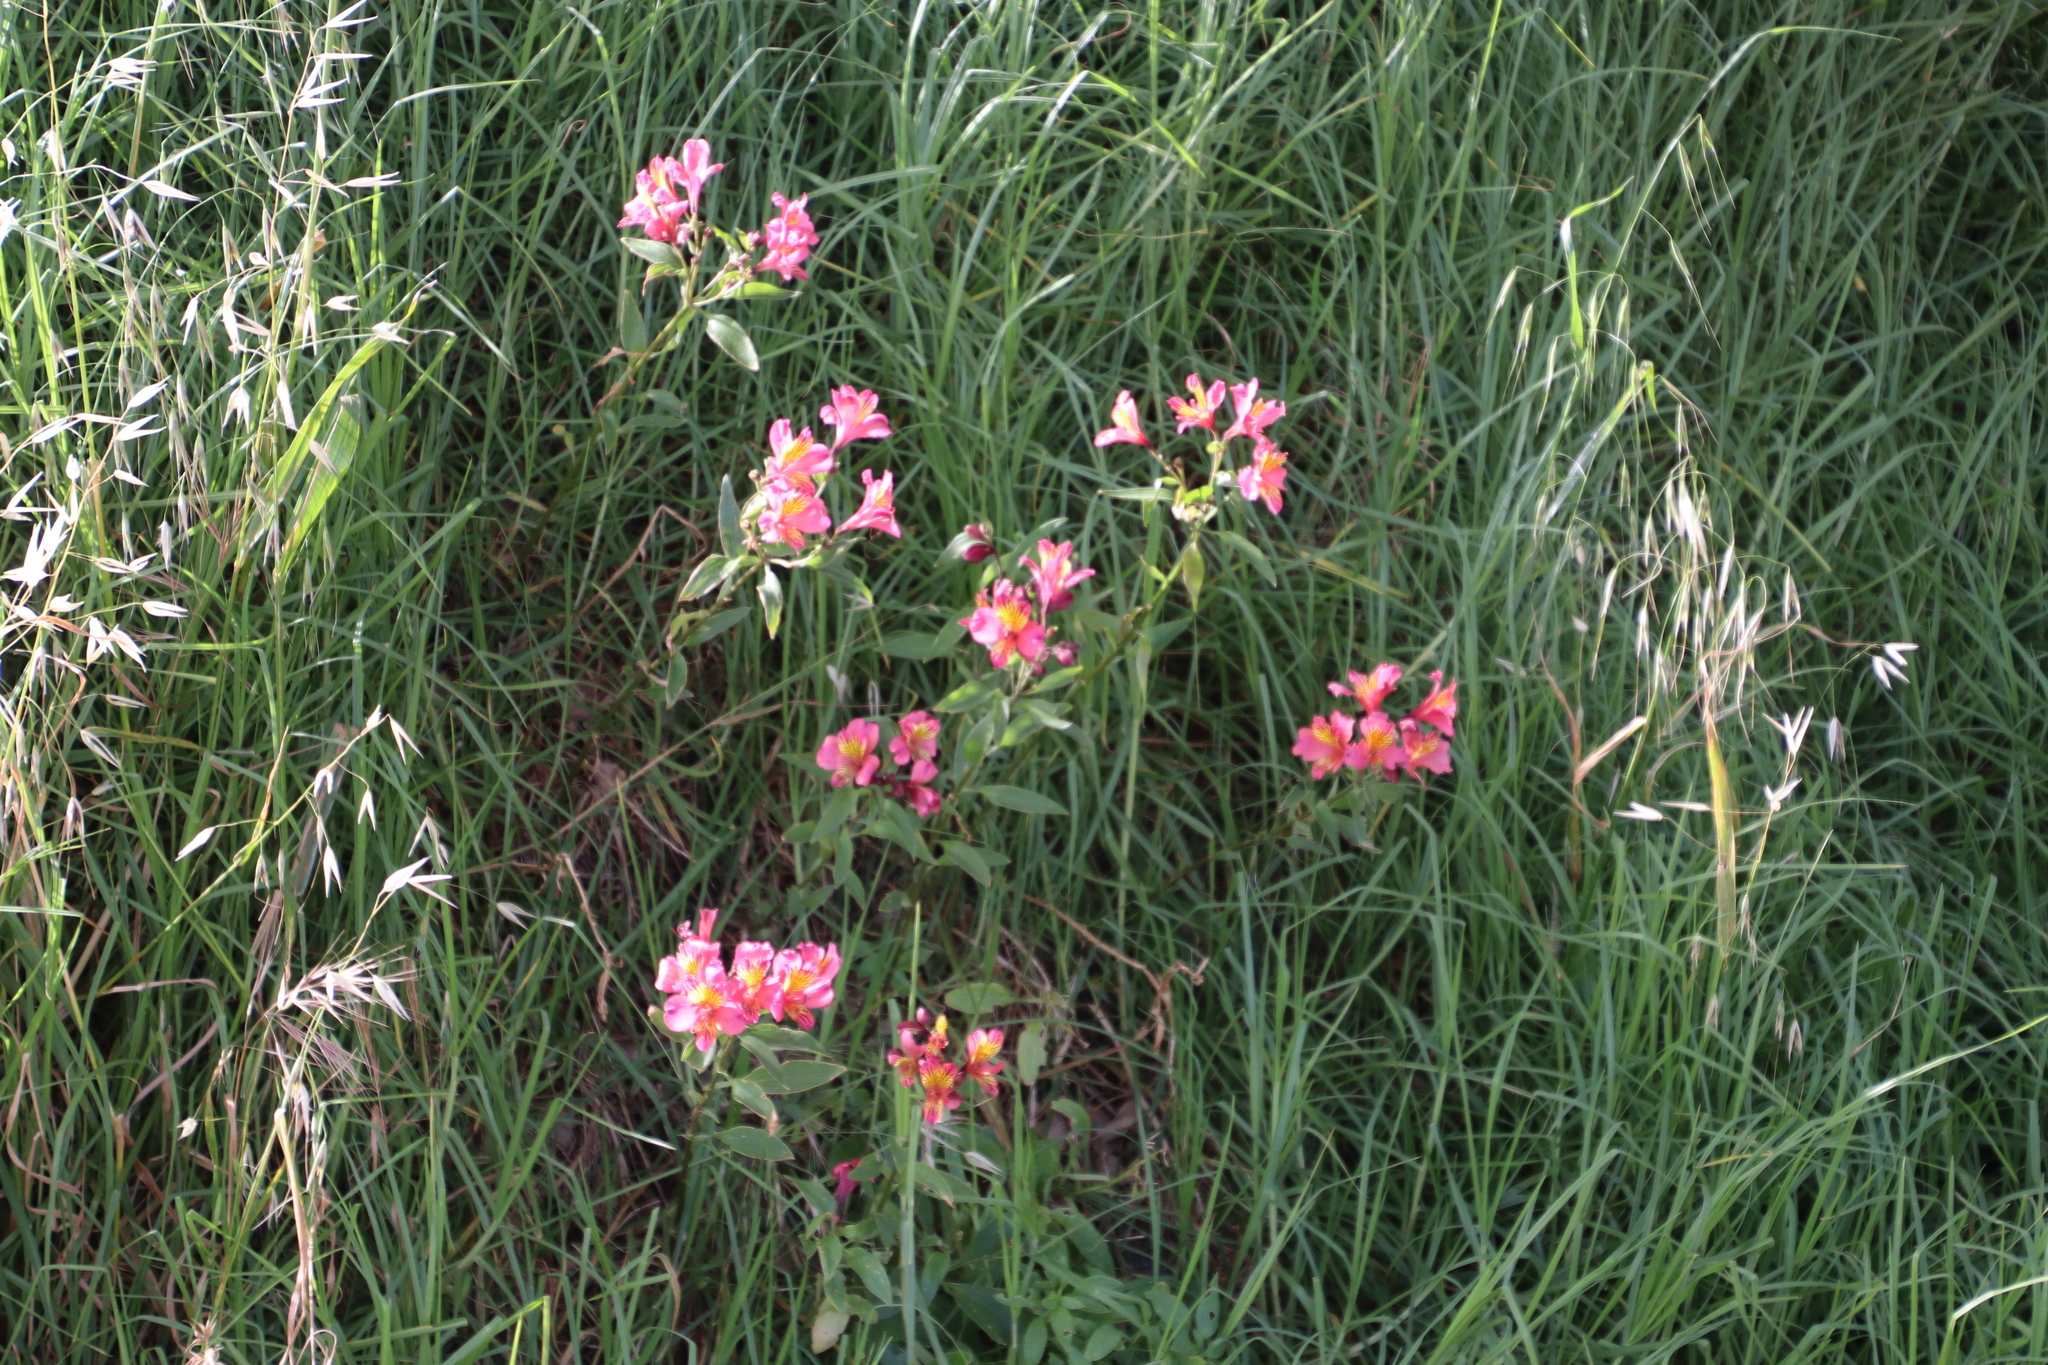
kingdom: Plantae
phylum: Tracheophyta
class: Liliopsida
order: Liliales
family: Alstroemeriaceae
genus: Alstroemeria
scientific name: Alstroemeria aurea
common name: Peruvian lily
